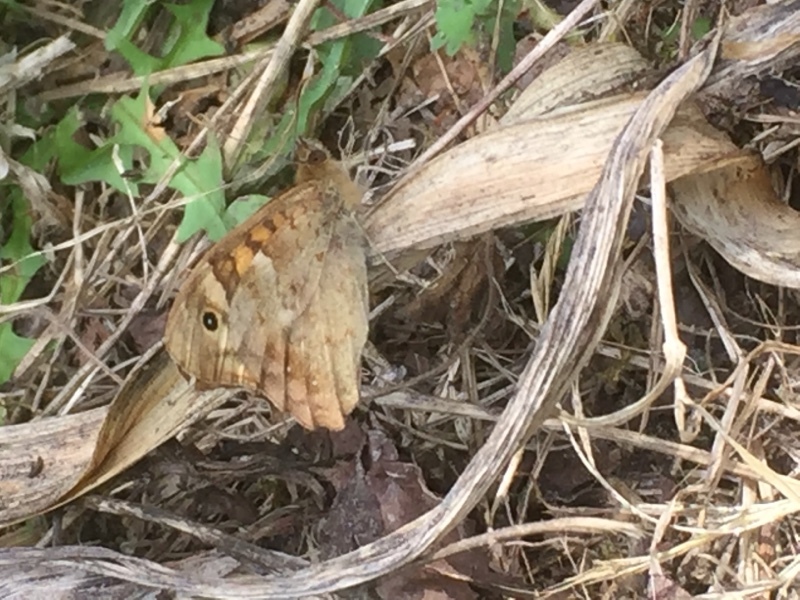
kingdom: Animalia
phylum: Arthropoda
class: Insecta
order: Lepidoptera
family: Nymphalidae
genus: Pararge
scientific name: Pararge aegeria
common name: Speckled wood
